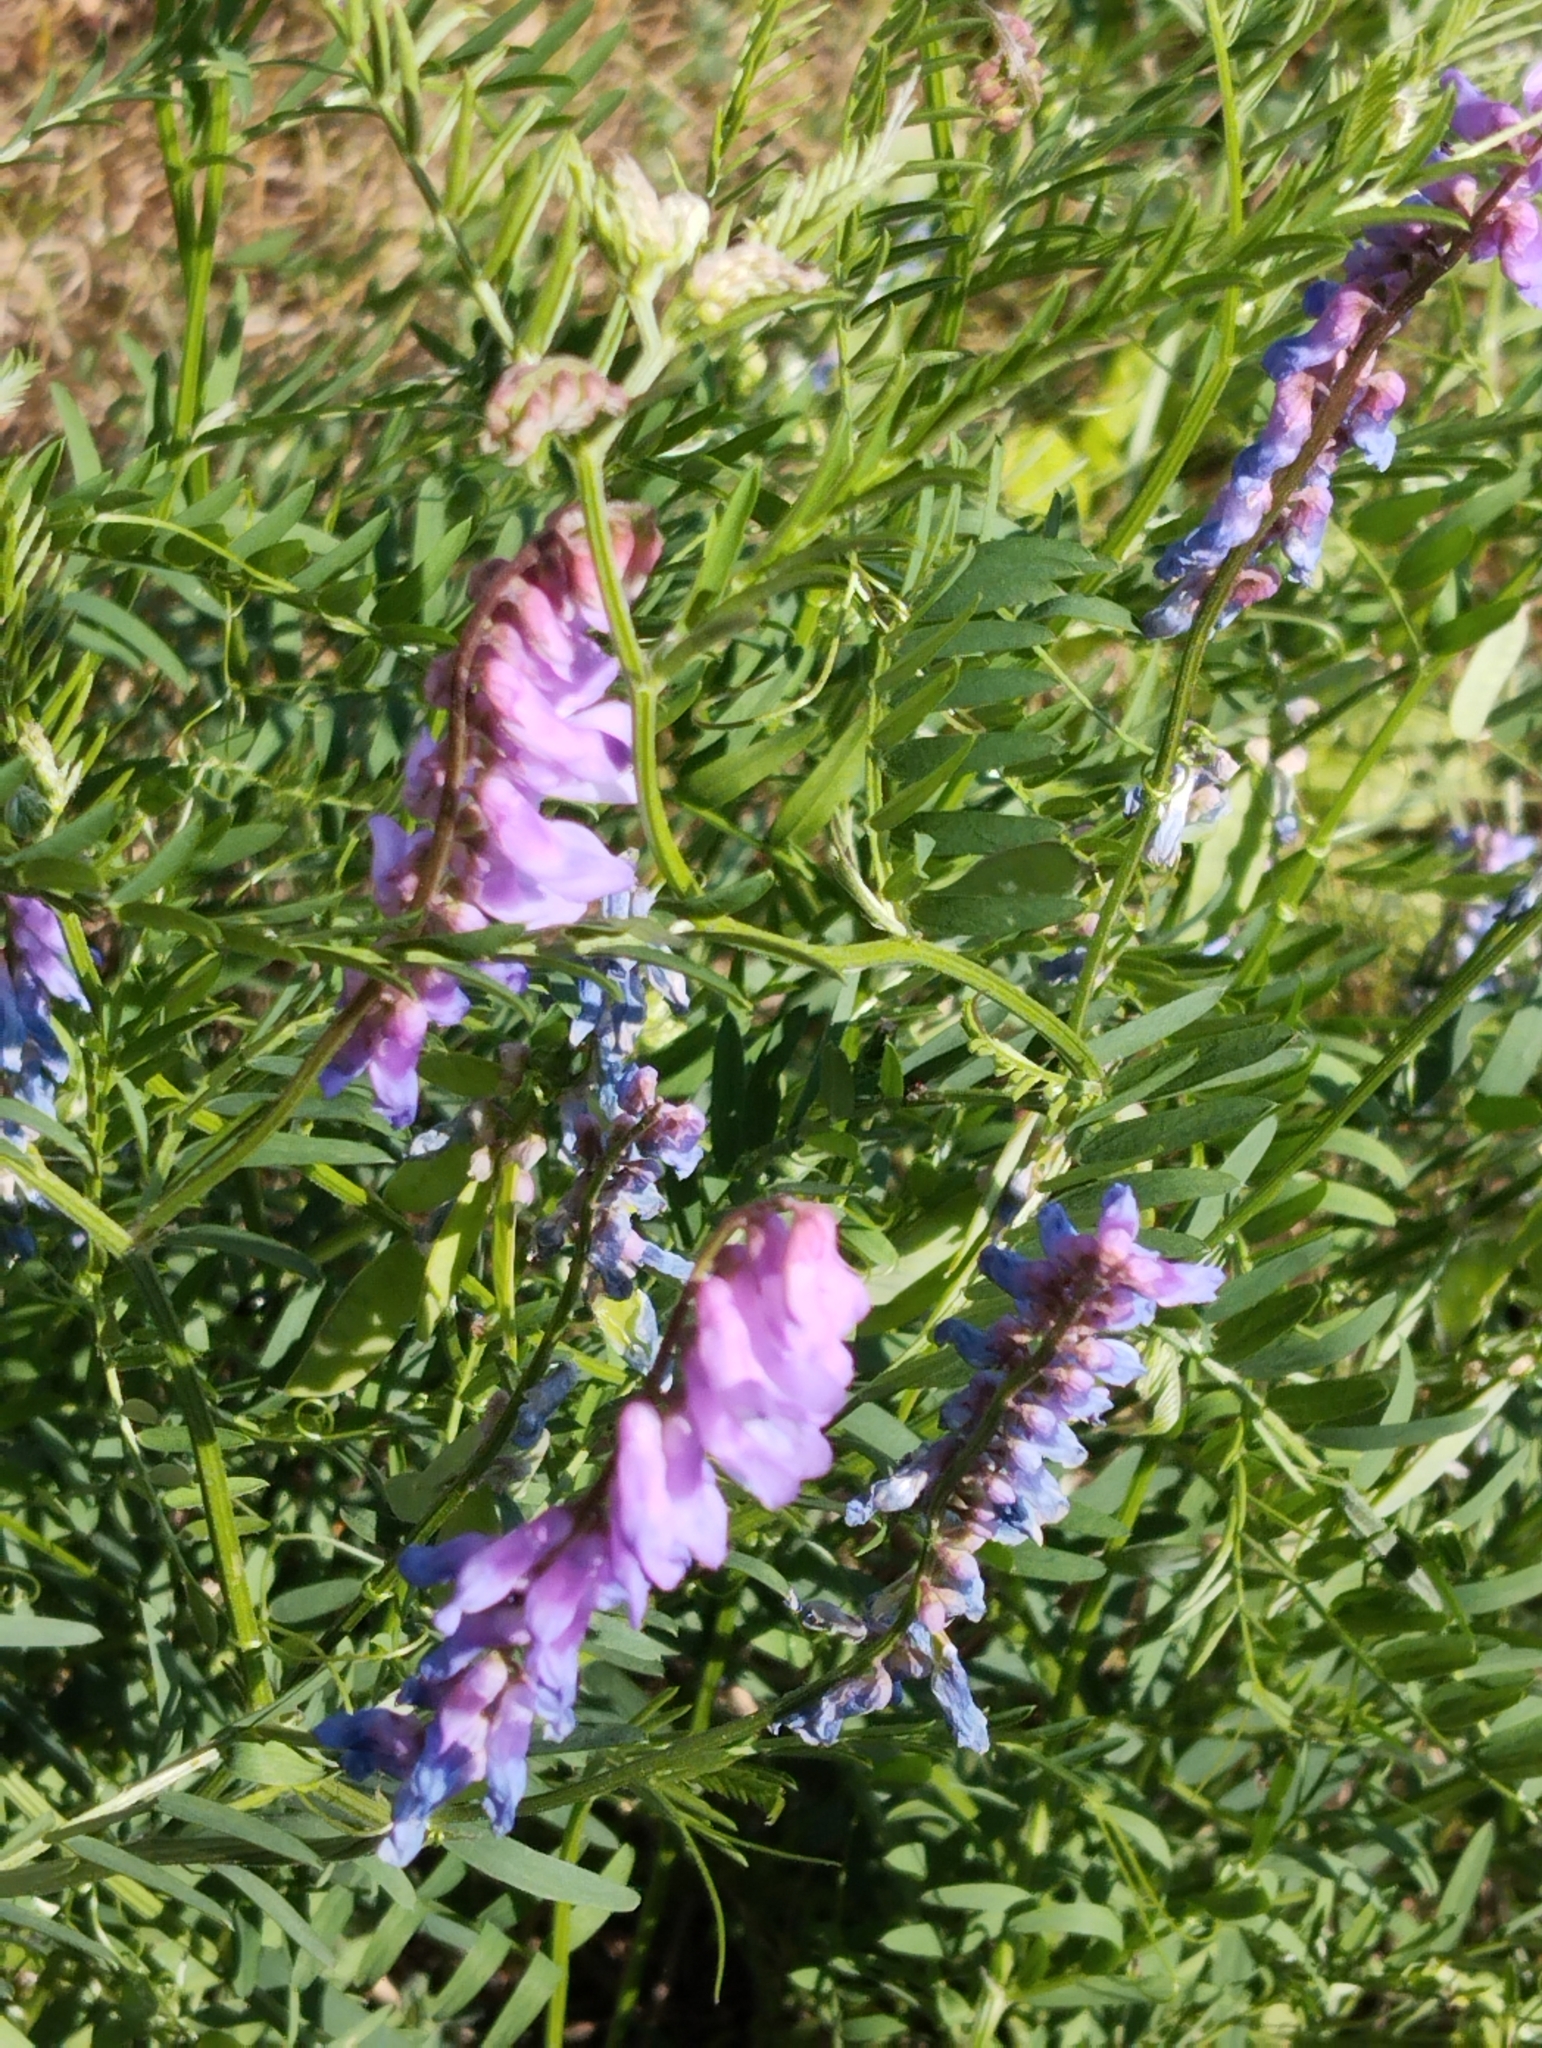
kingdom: Plantae
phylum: Tracheophyta
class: Magnoliopsida
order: Fabales
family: Fabaceae
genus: Vicia
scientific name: Vicia cracca
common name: Bird vetch
